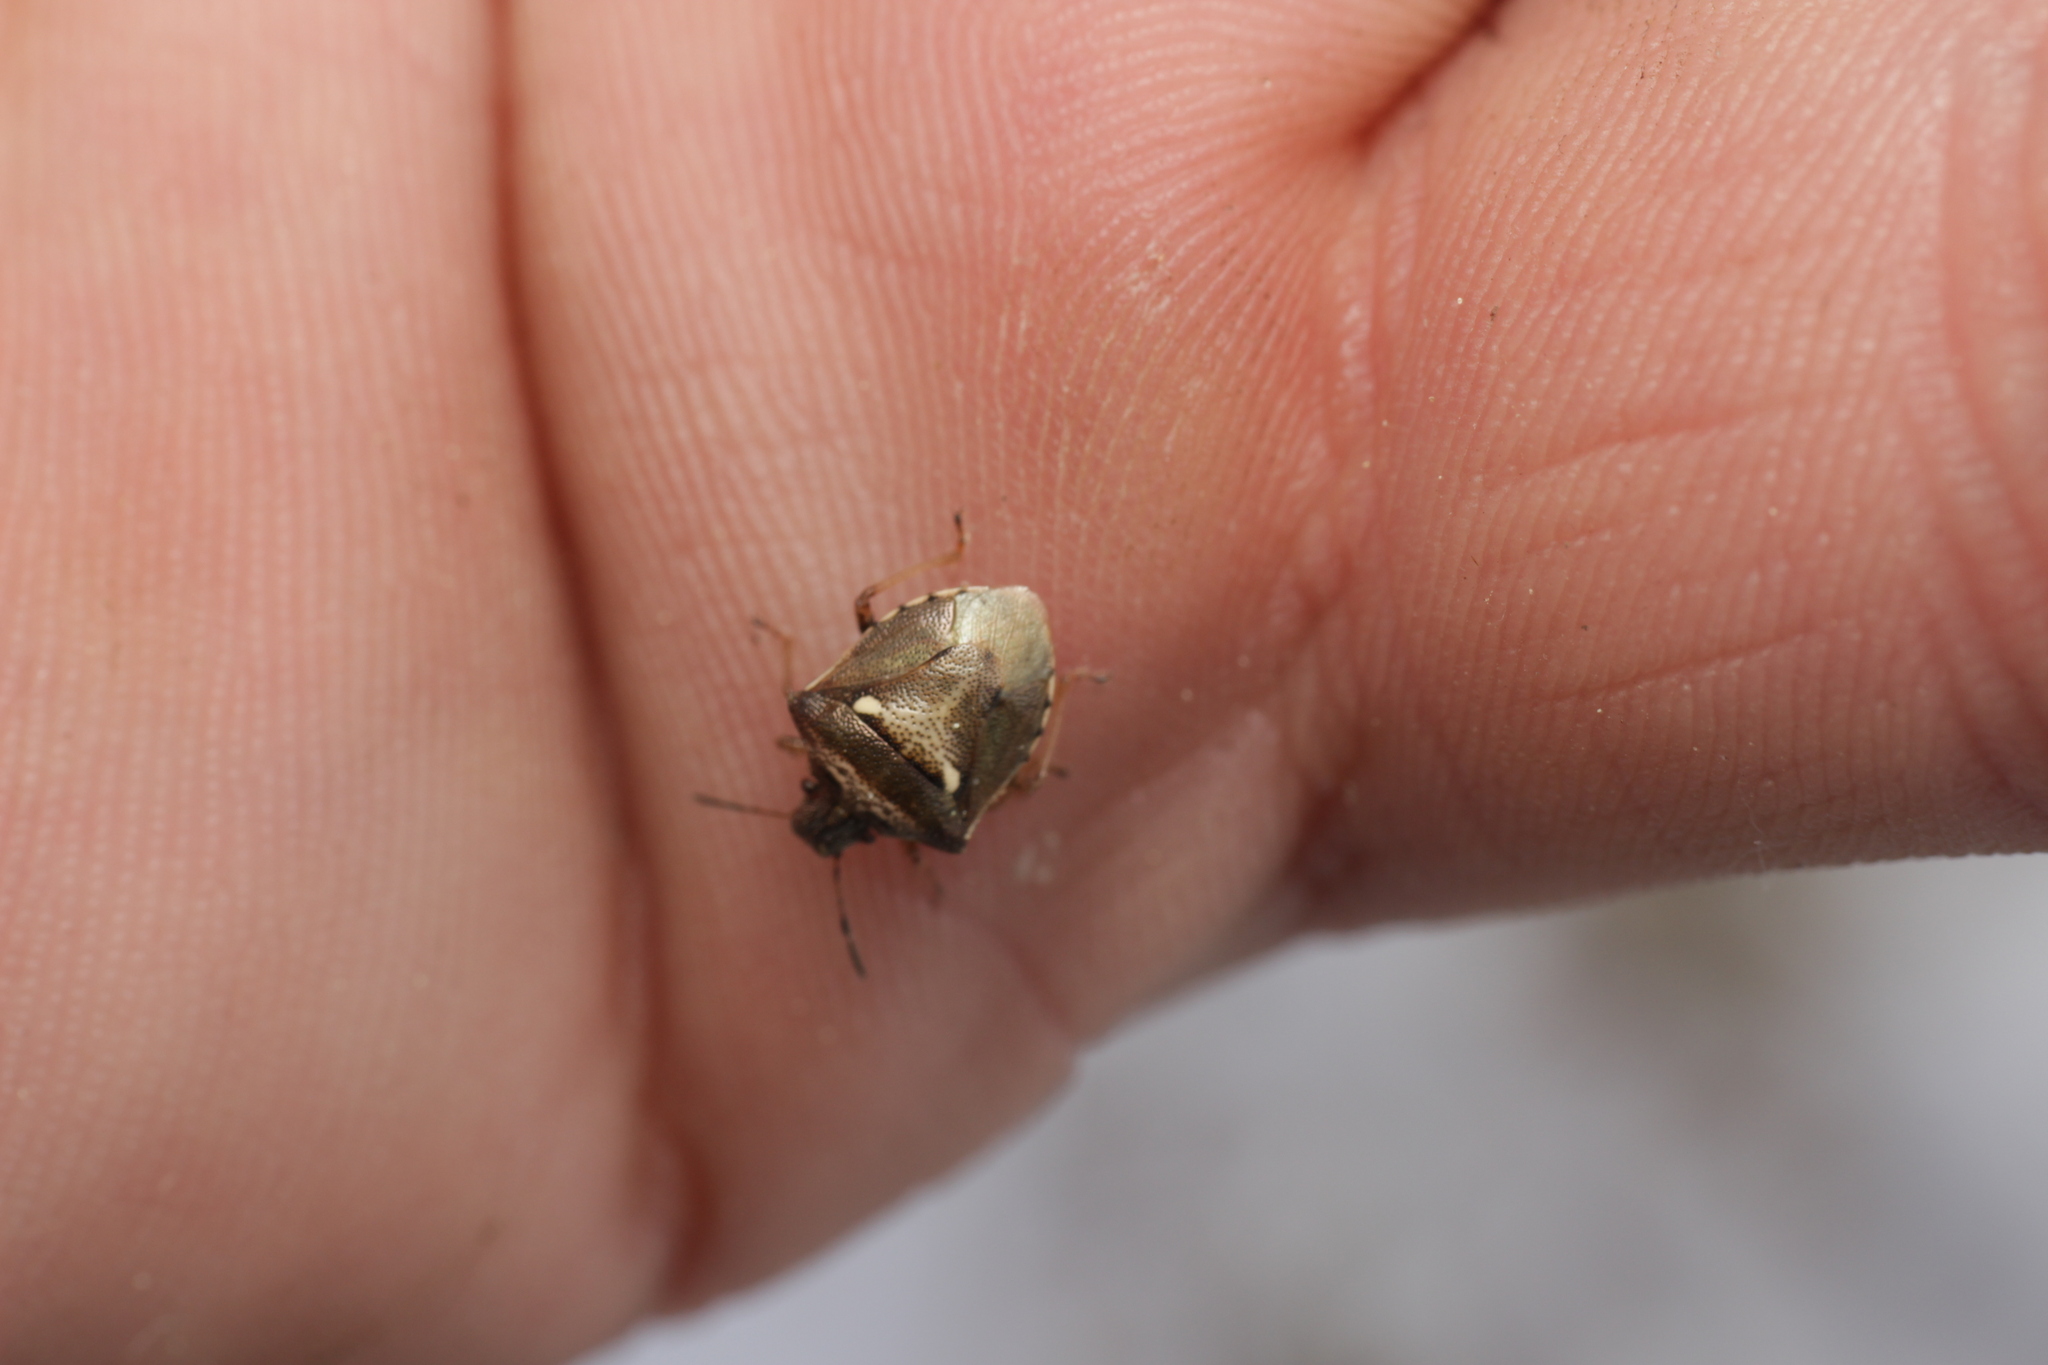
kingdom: Animalia
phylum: Arthropoda
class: Insecta
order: Hemiptera
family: Pentatomidae
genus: Eysarcoris
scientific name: Eysarcoris aeneus
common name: New forest shieldbug
